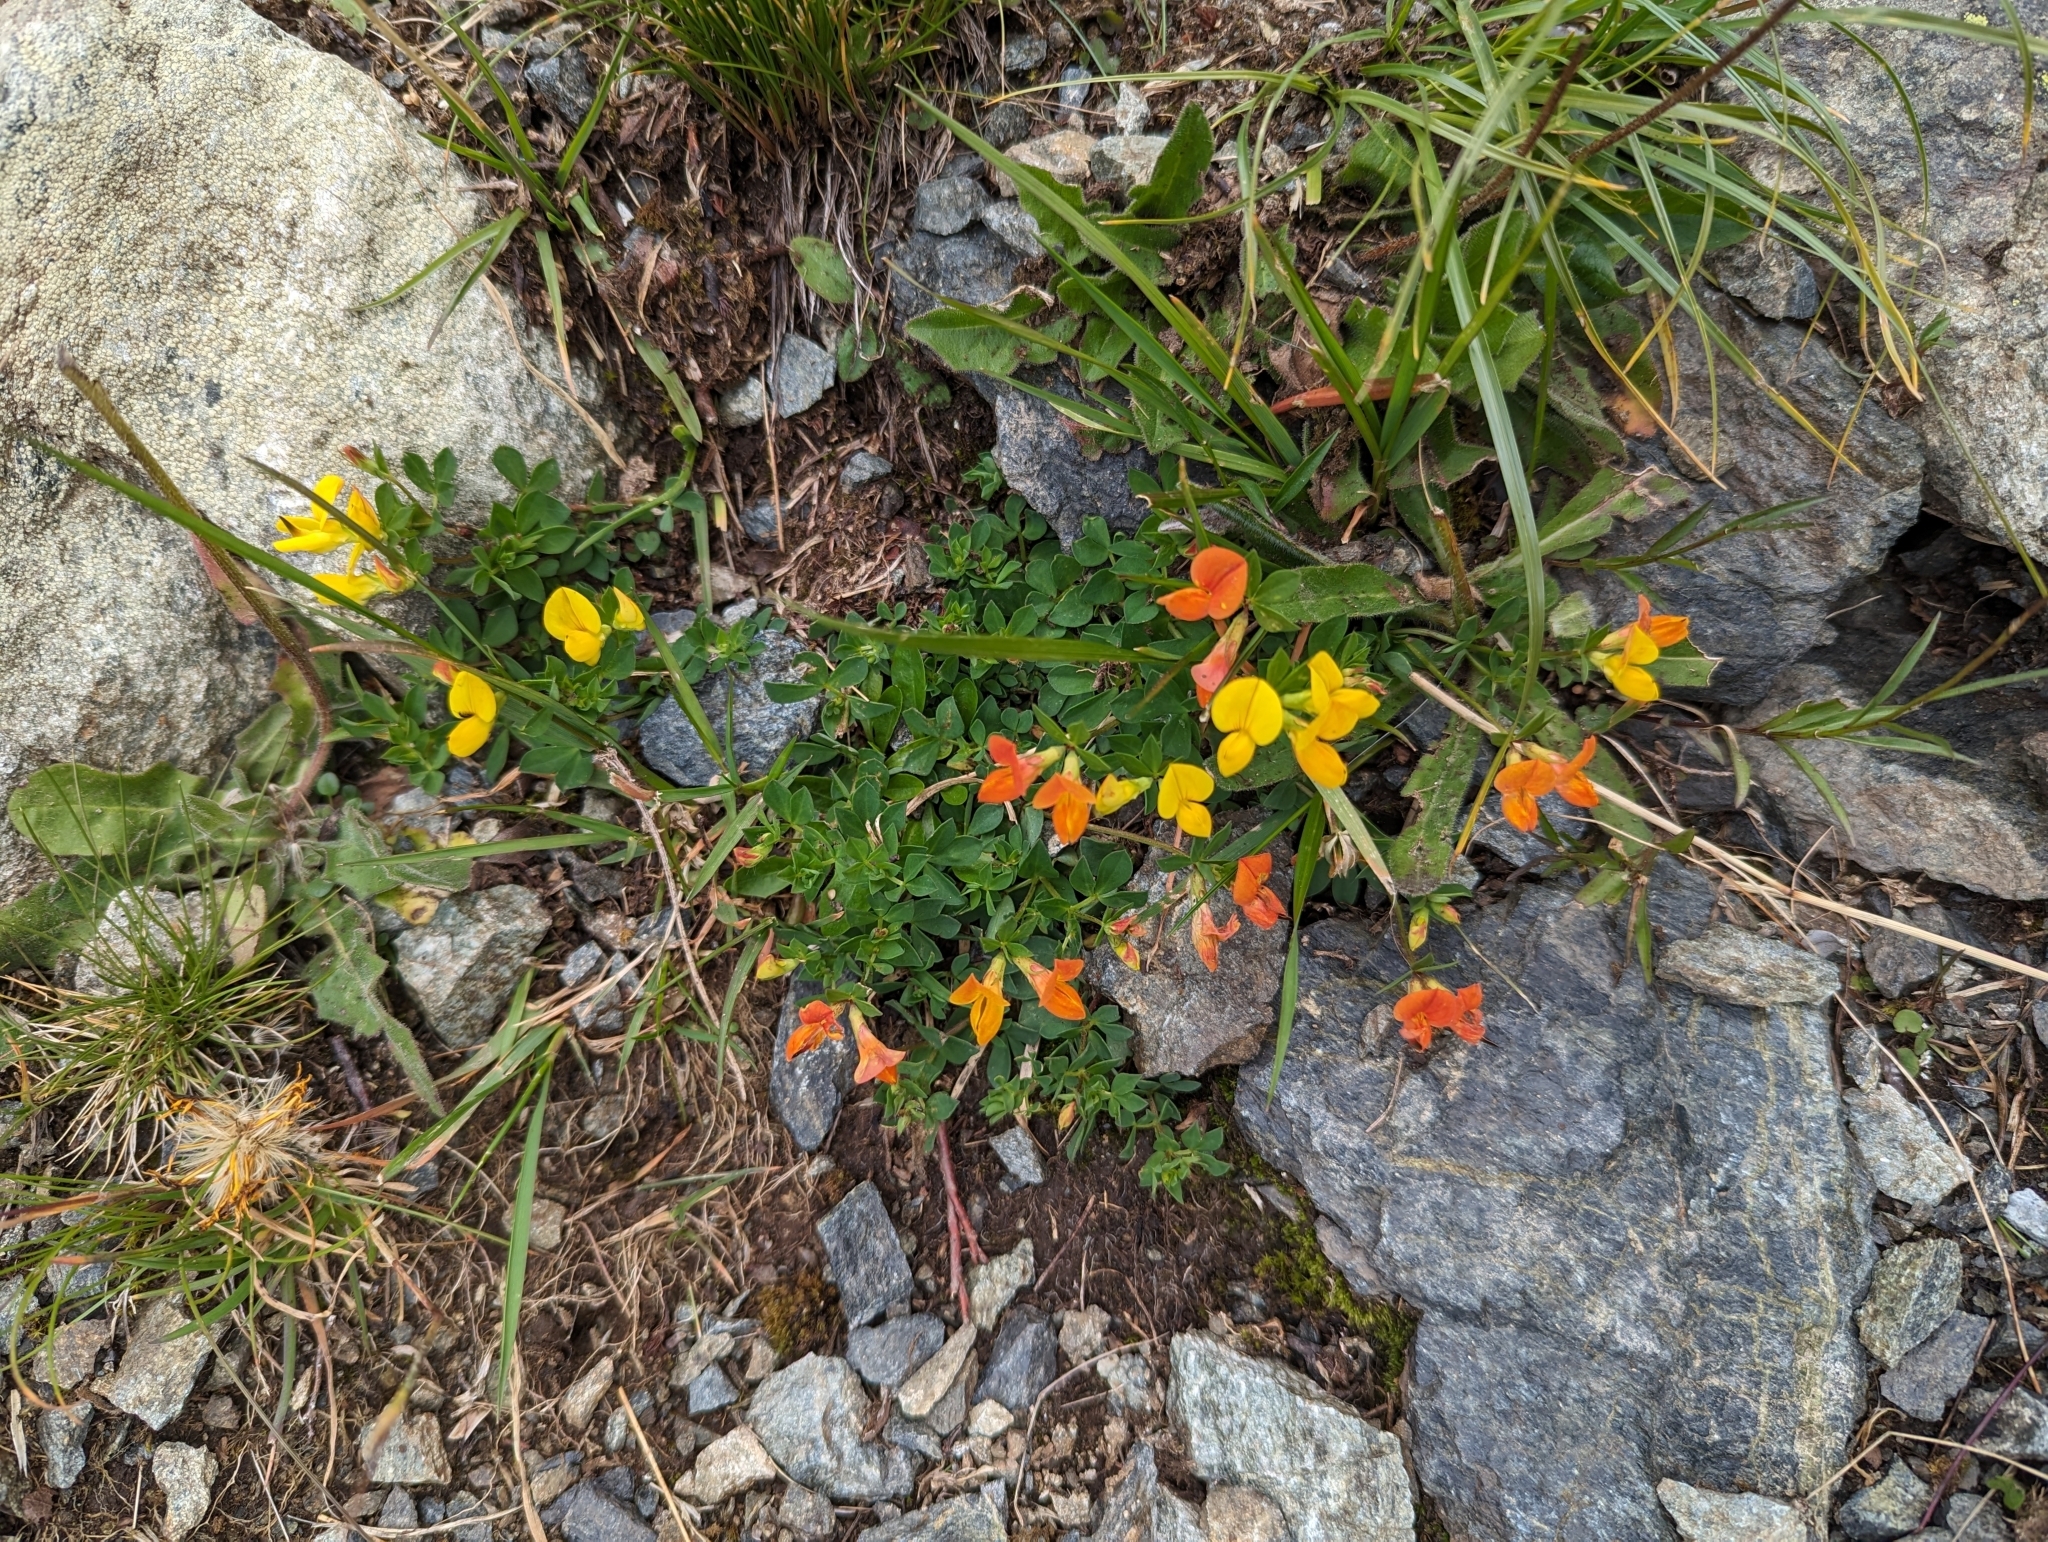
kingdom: Plantae
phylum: Tracheophyta
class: Magnoliopsida
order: Fabales
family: Fabaceae
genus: Lotus
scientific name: Lotus alpinus
